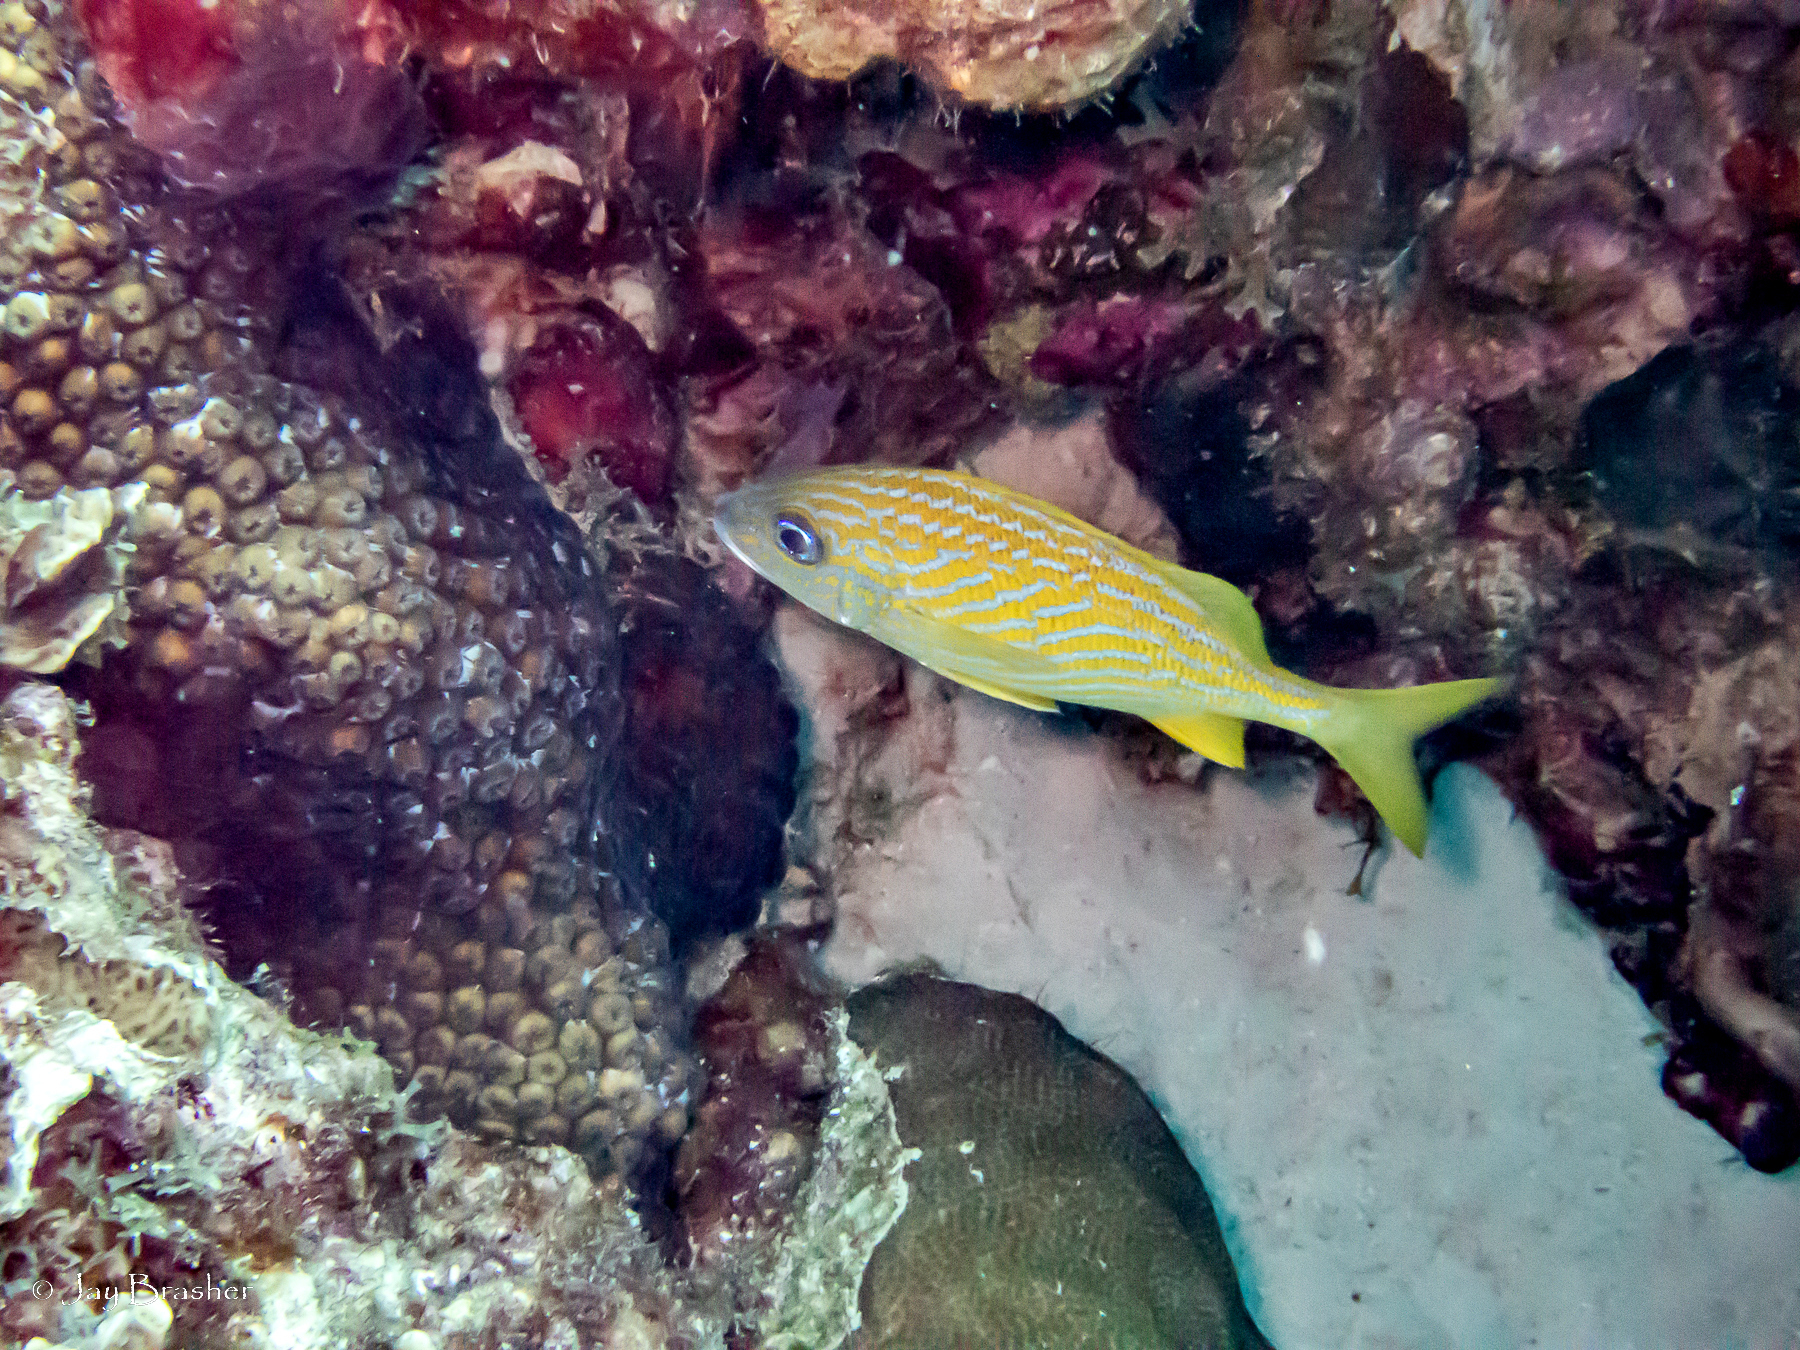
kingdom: Animalia
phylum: Chordata
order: Perciformes
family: Haemulidae
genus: Haemulon
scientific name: Haemulon flavolineatum
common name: French grunt
